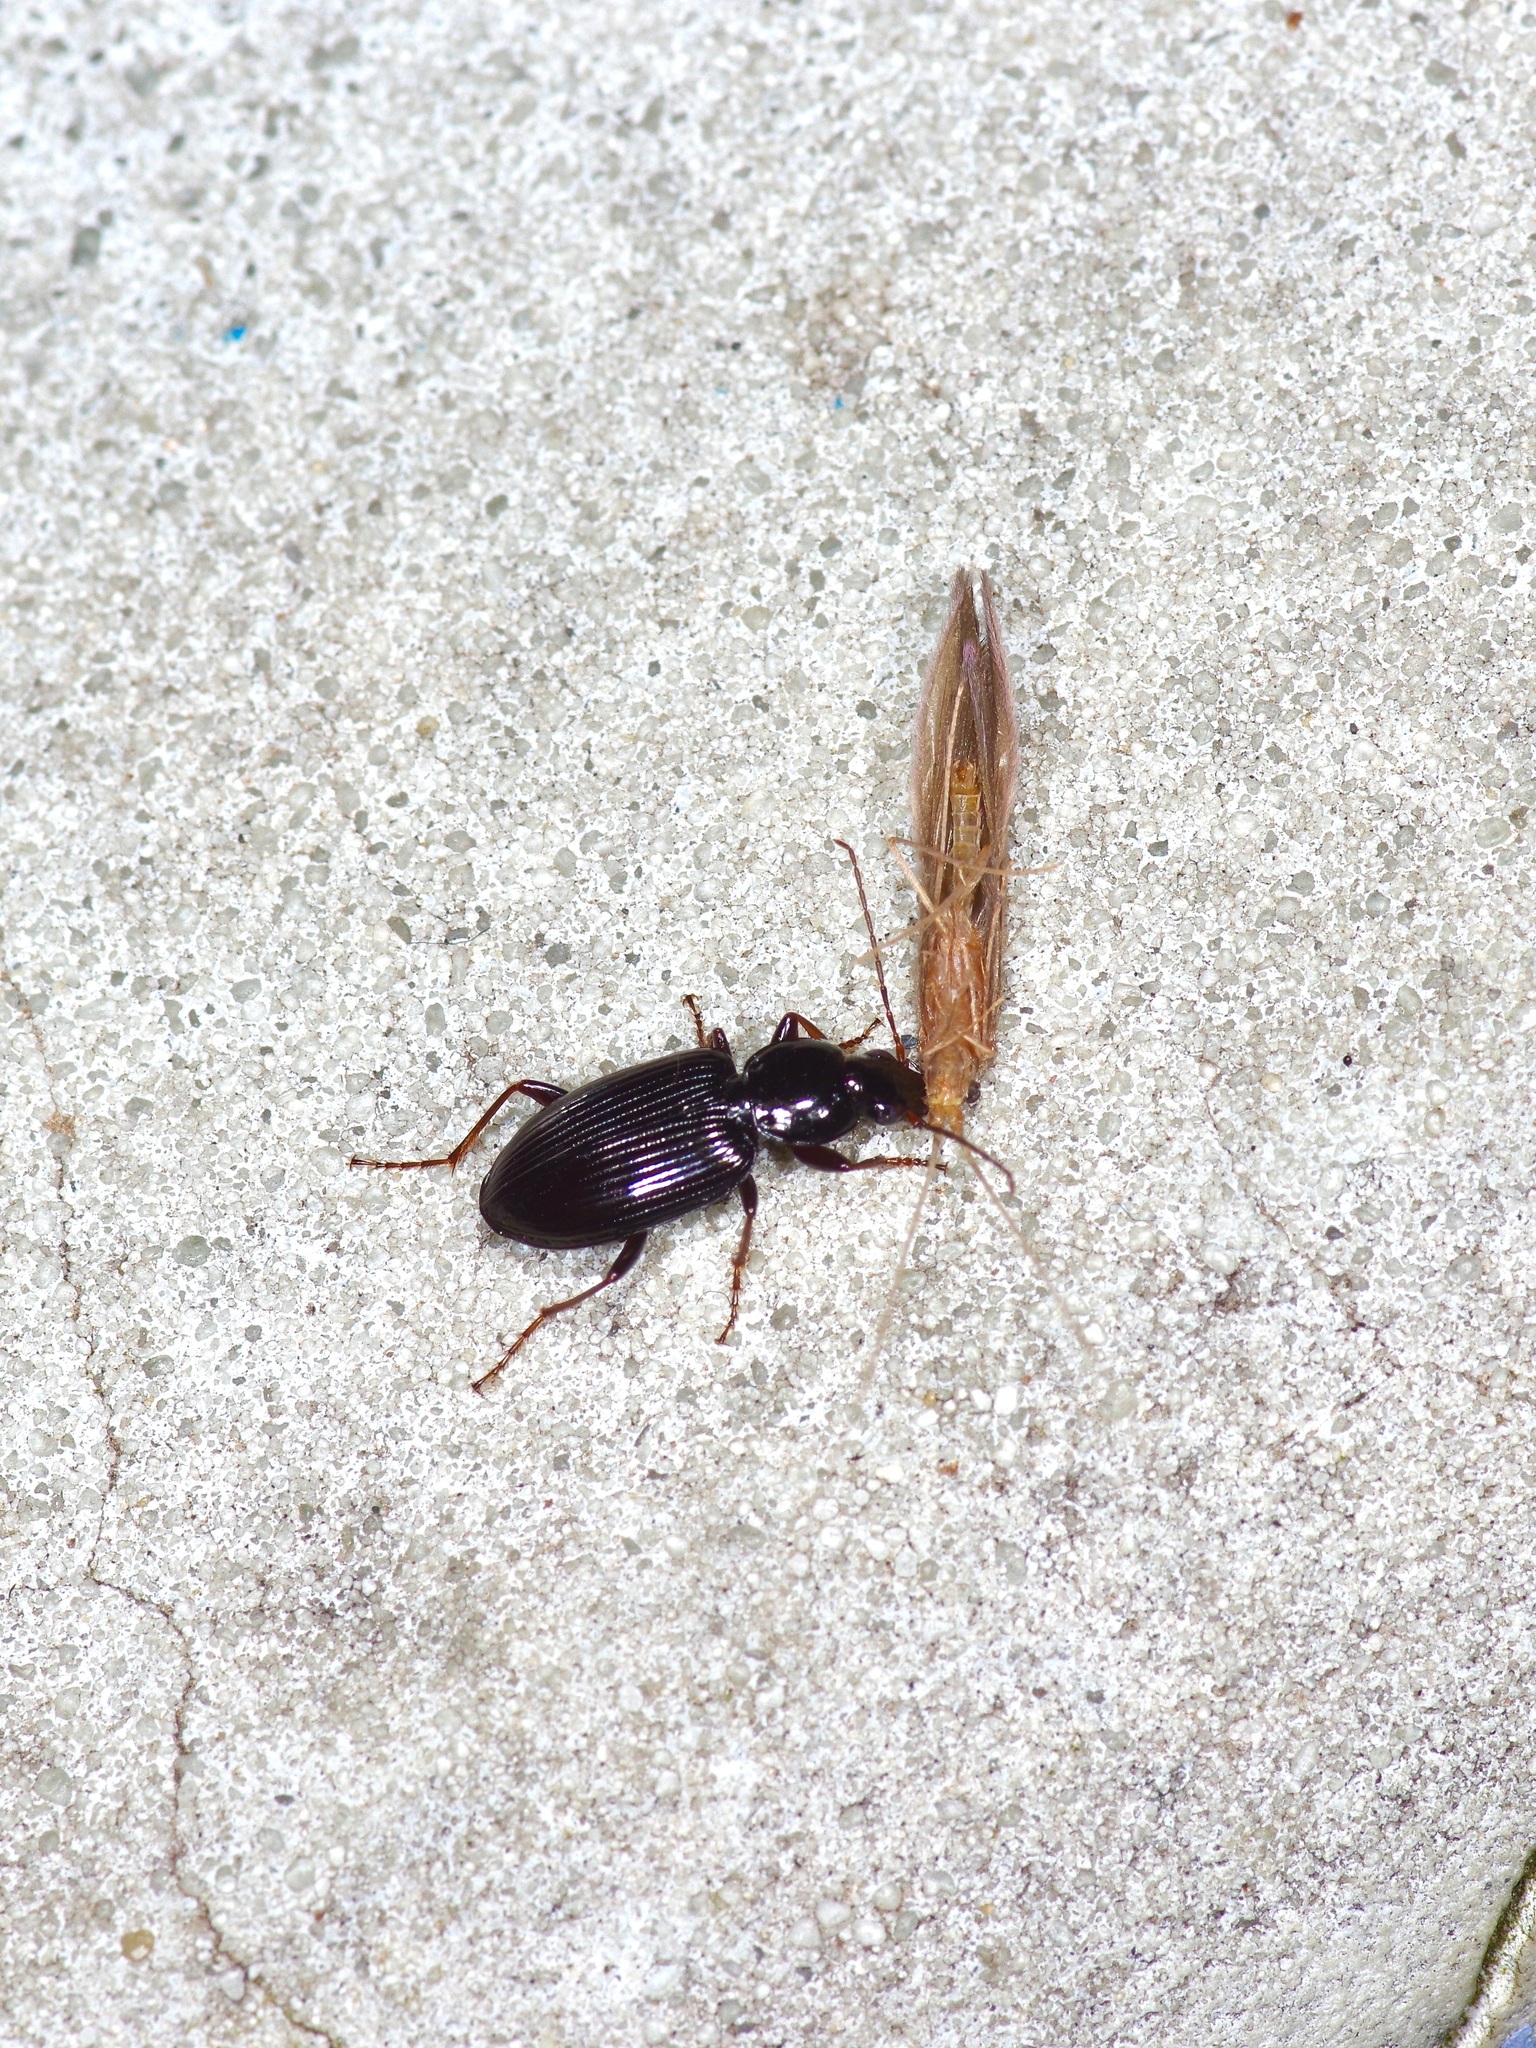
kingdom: Animalia
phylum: Arthropoda
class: Insecta
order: Coleoptera
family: Carabidae
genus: Agonum
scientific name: Agonum punctiforme
